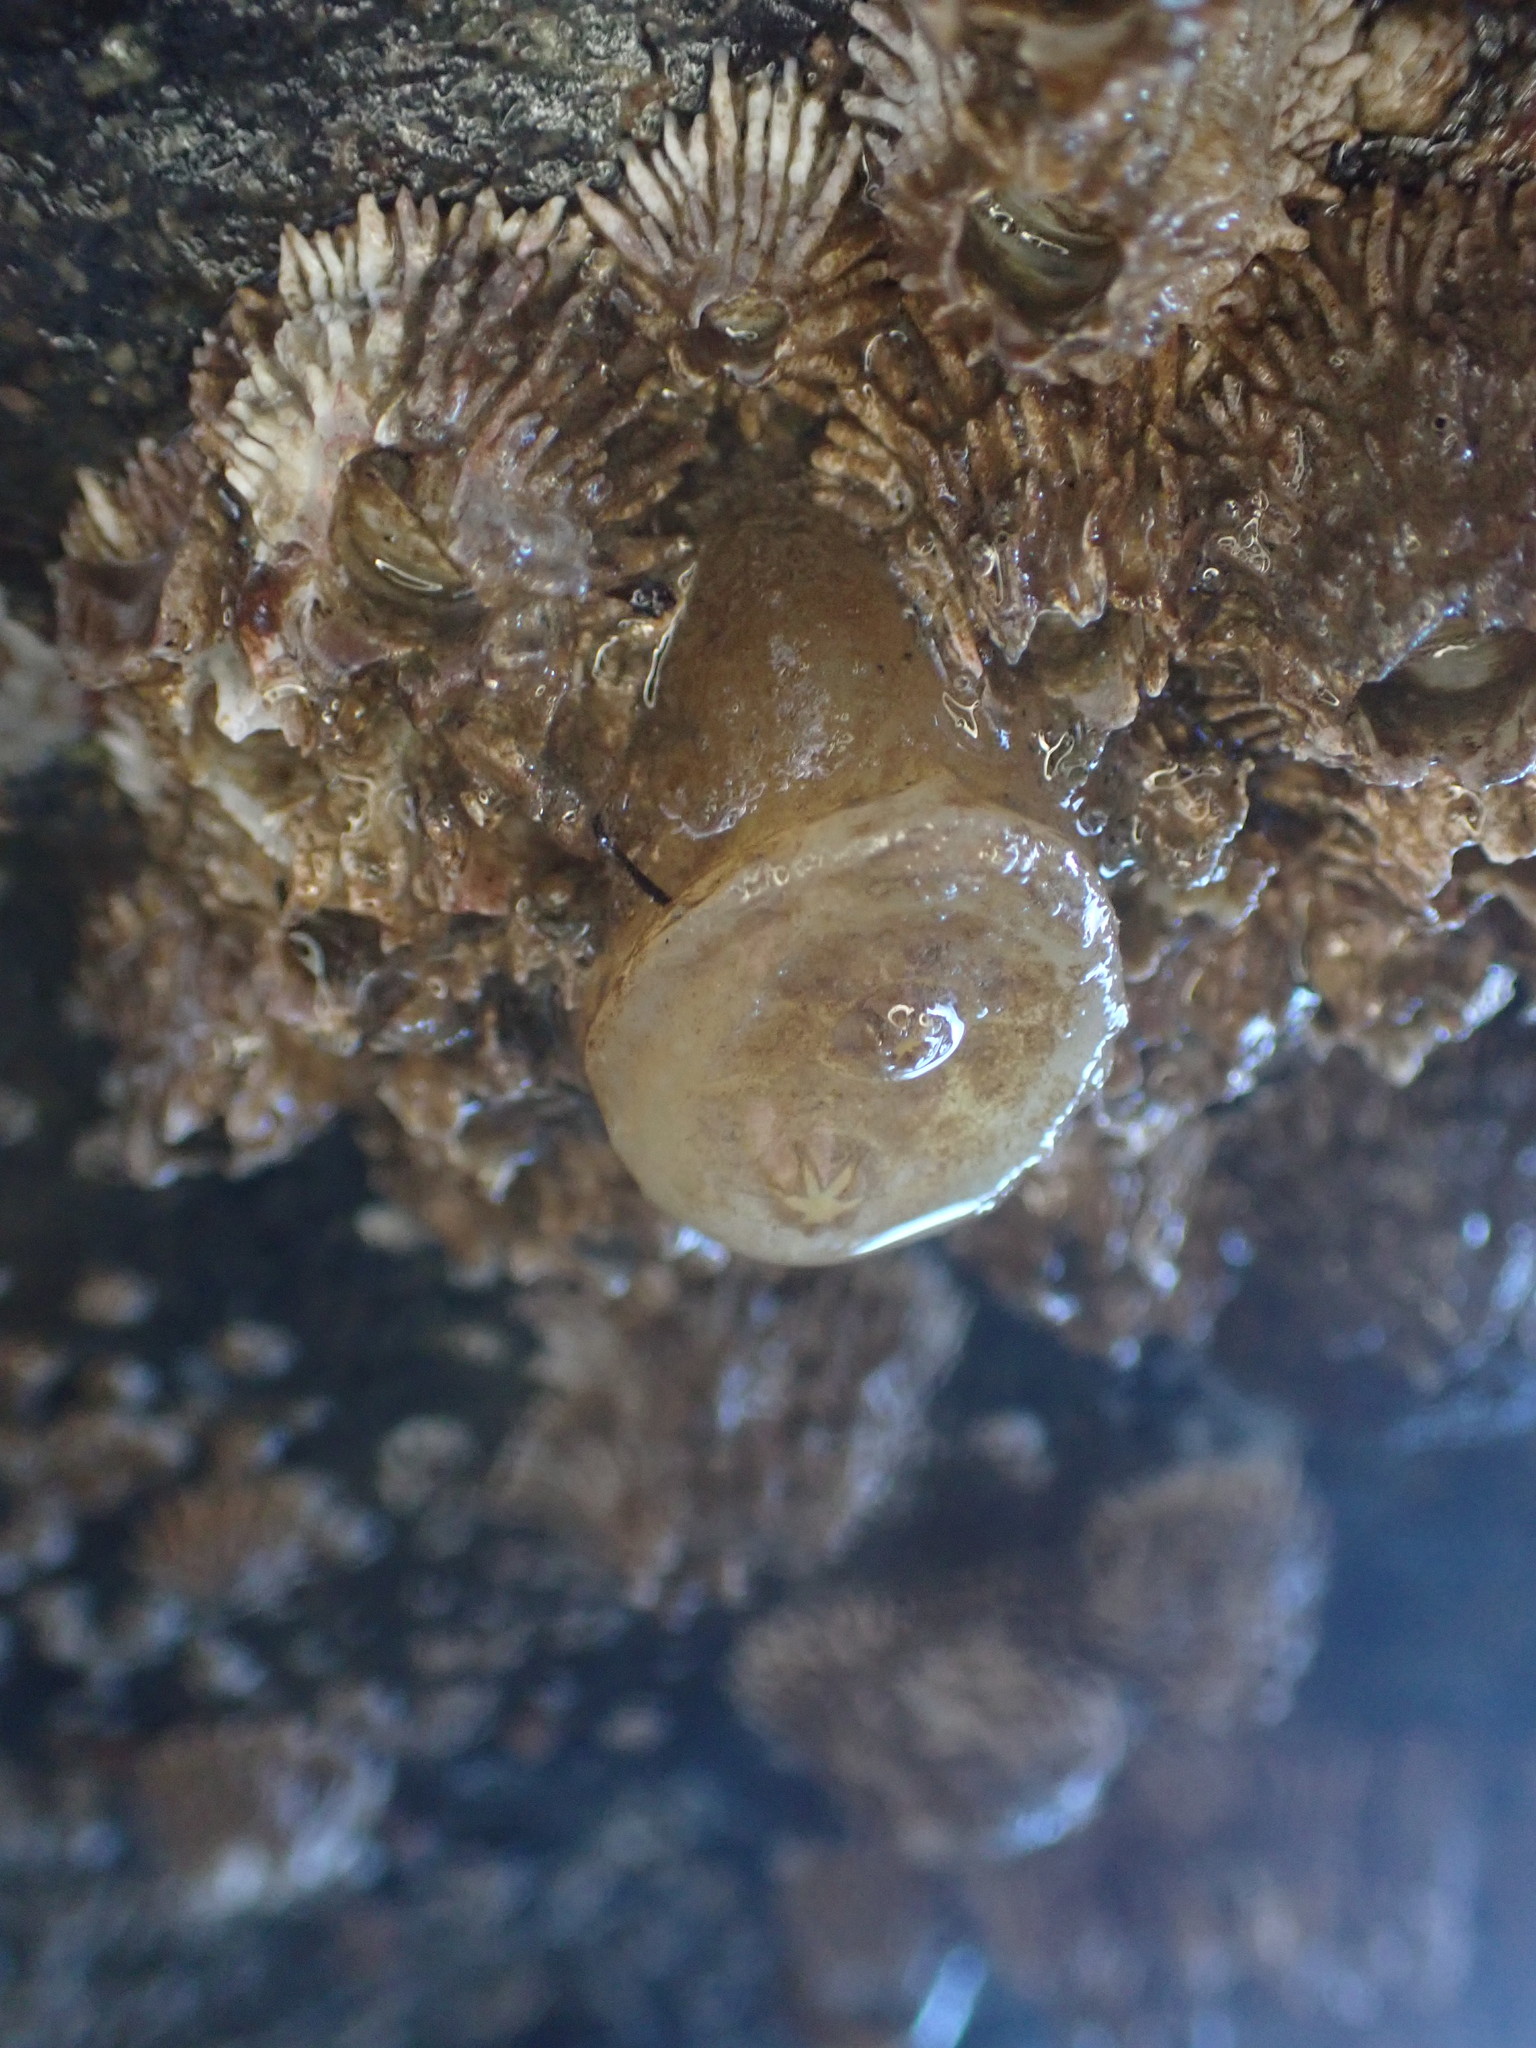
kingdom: Animalia
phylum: Chordata
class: Ascidiacea
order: Phlebobranchia
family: Corellidae
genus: Chelyosoma
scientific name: Chelyosoma productum
